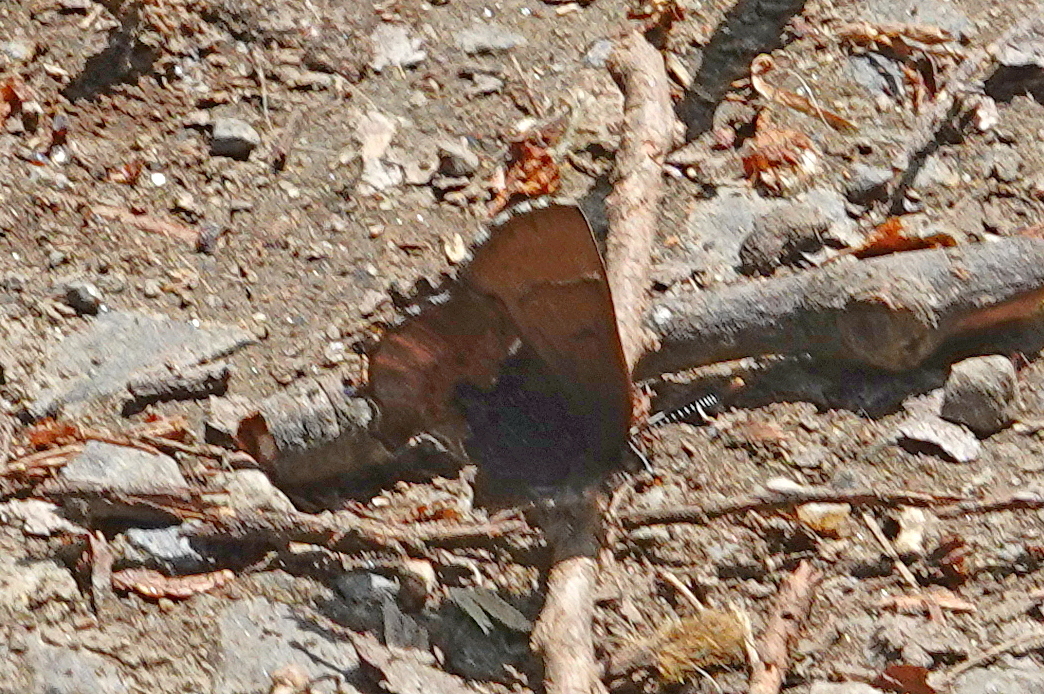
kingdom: Animalia
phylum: Arthropoda
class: Insecta
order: Lepidoptera
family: Lycaenidae
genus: Incisalia
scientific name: Incisalia henrici
